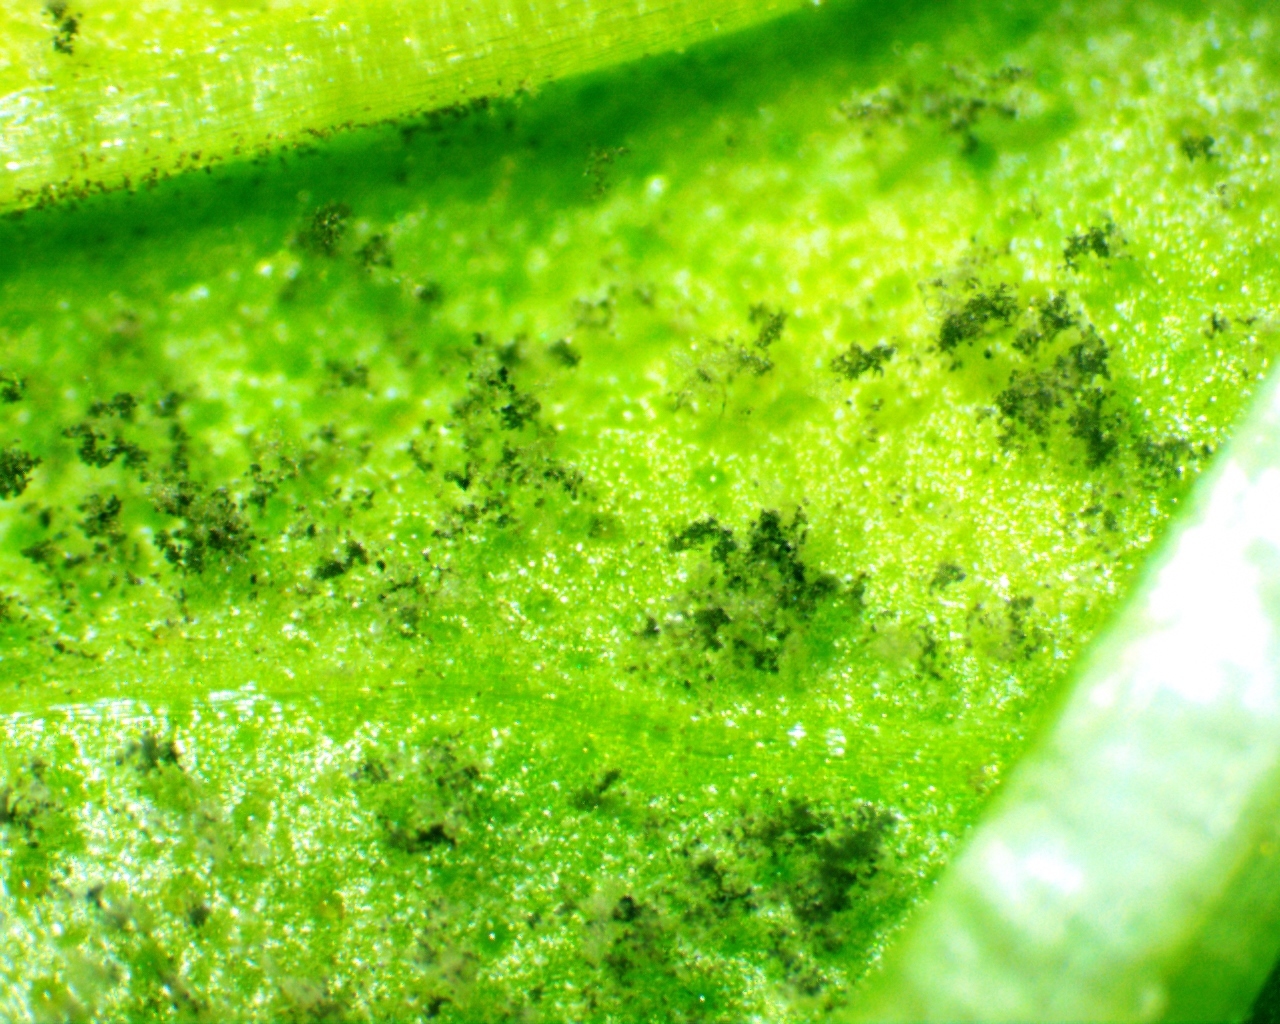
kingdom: Chromista
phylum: Oomycota
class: Peronosporea
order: Peronosporales
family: Peronosporaceae
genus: Peronospora
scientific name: Peronospora belbahrii
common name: Basil downy mildew
